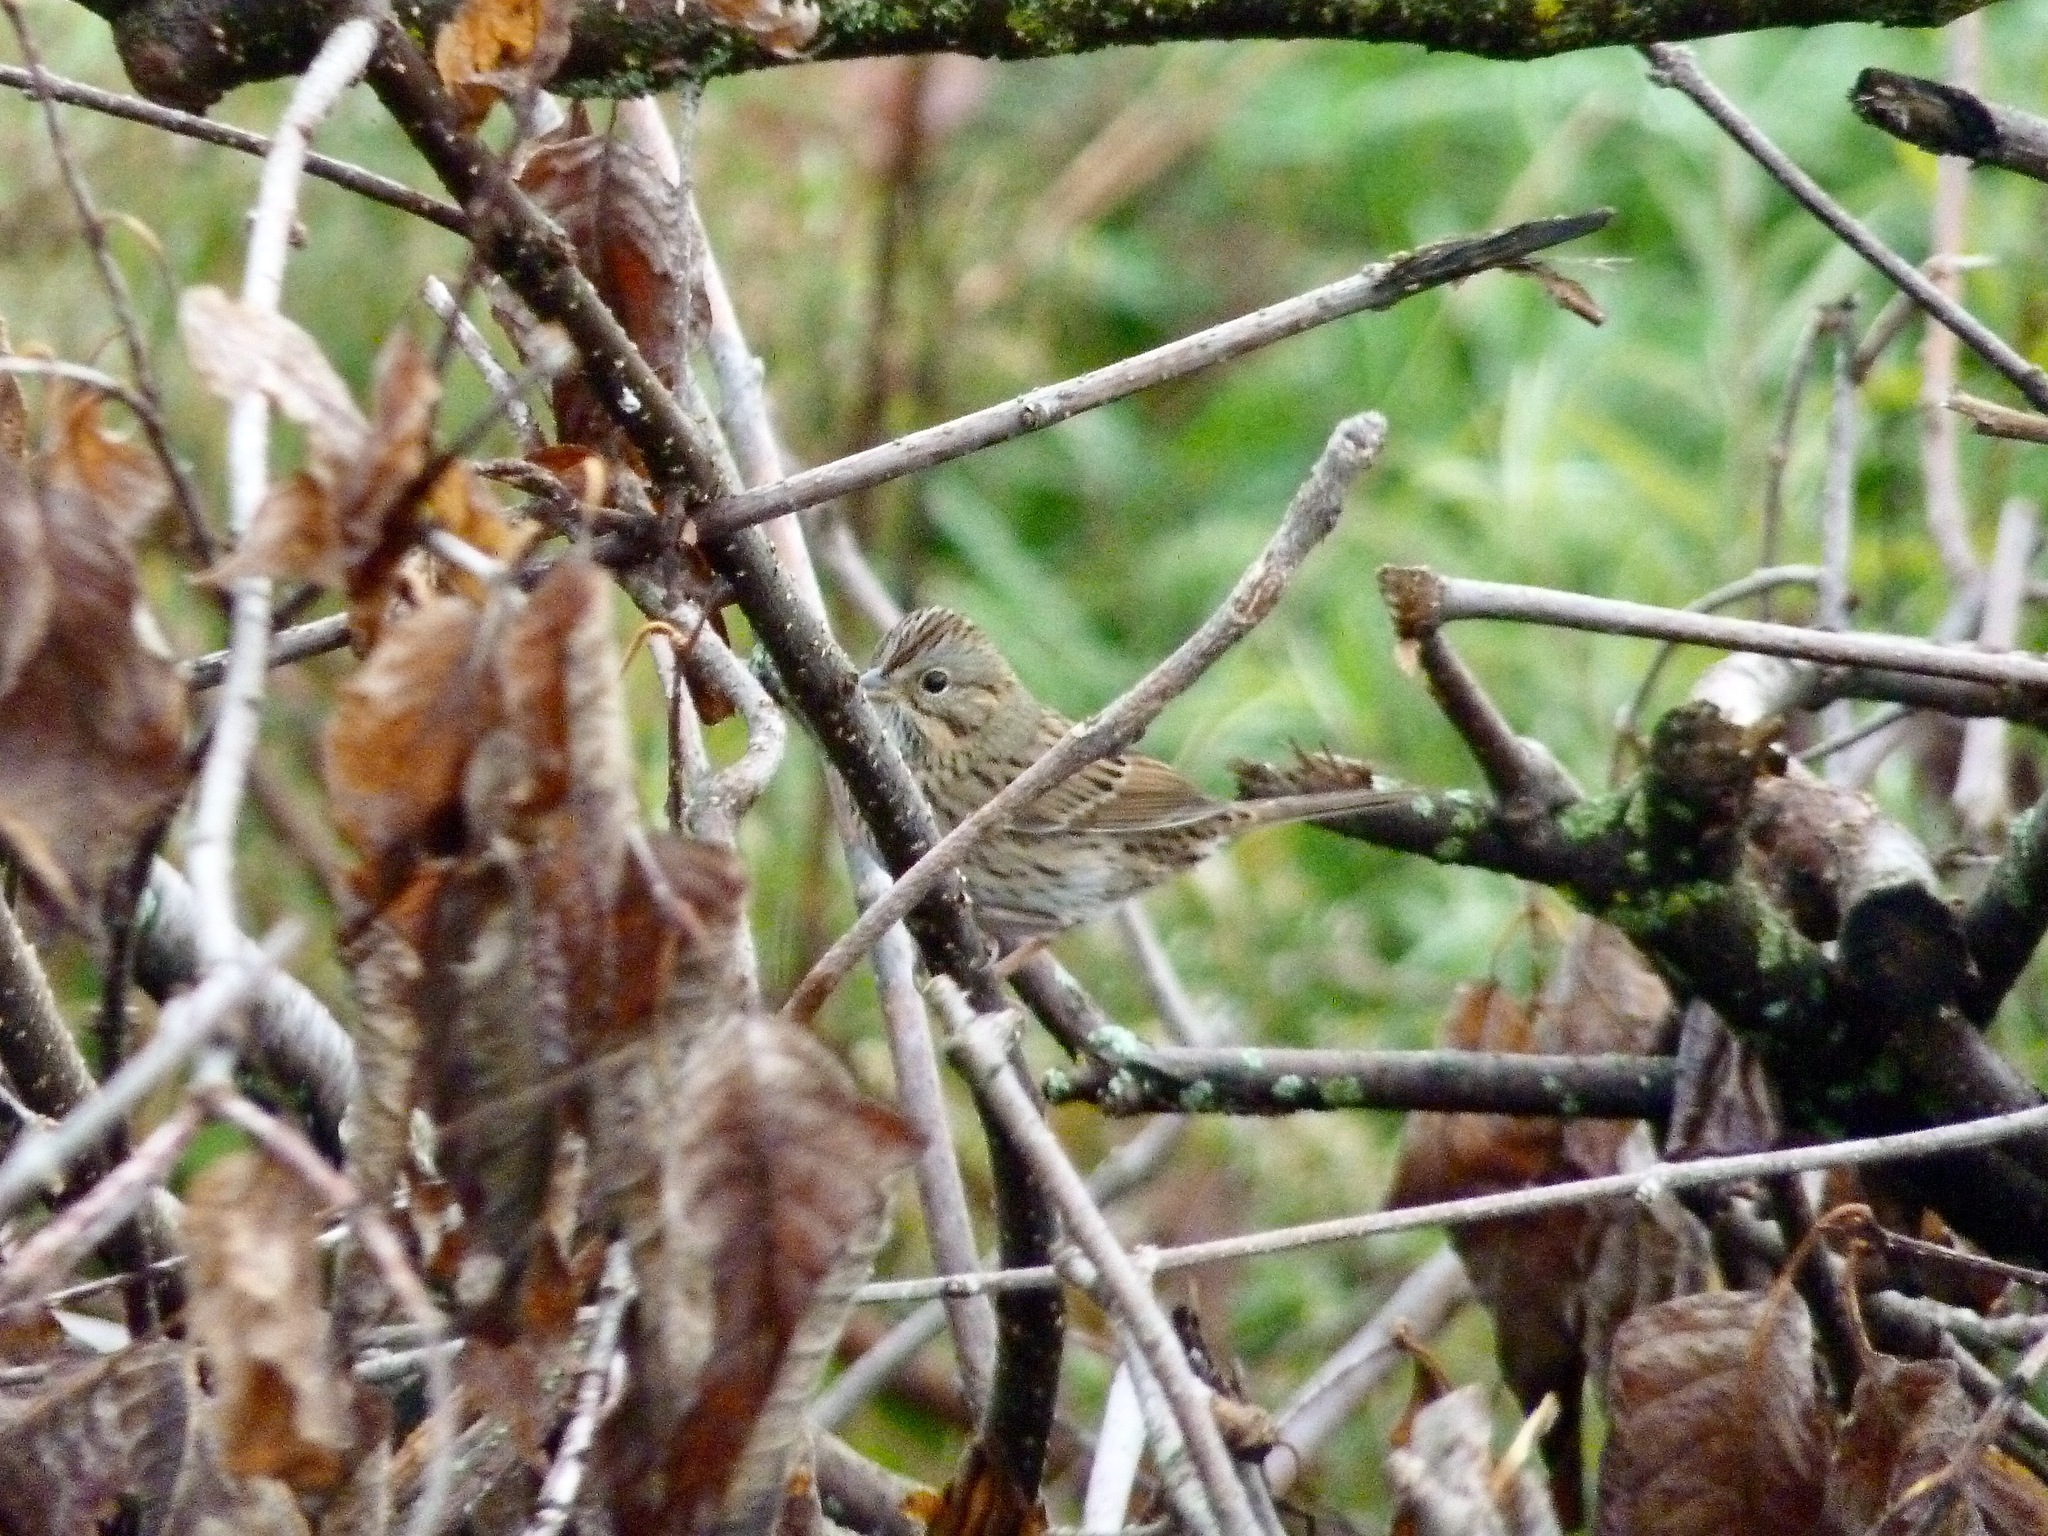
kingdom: Animalia
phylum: Chordata
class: Aves
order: Passeriformes
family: Passerellidae
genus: Melospiza
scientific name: Melospiza lincolnii
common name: Lincoln's sparrow
